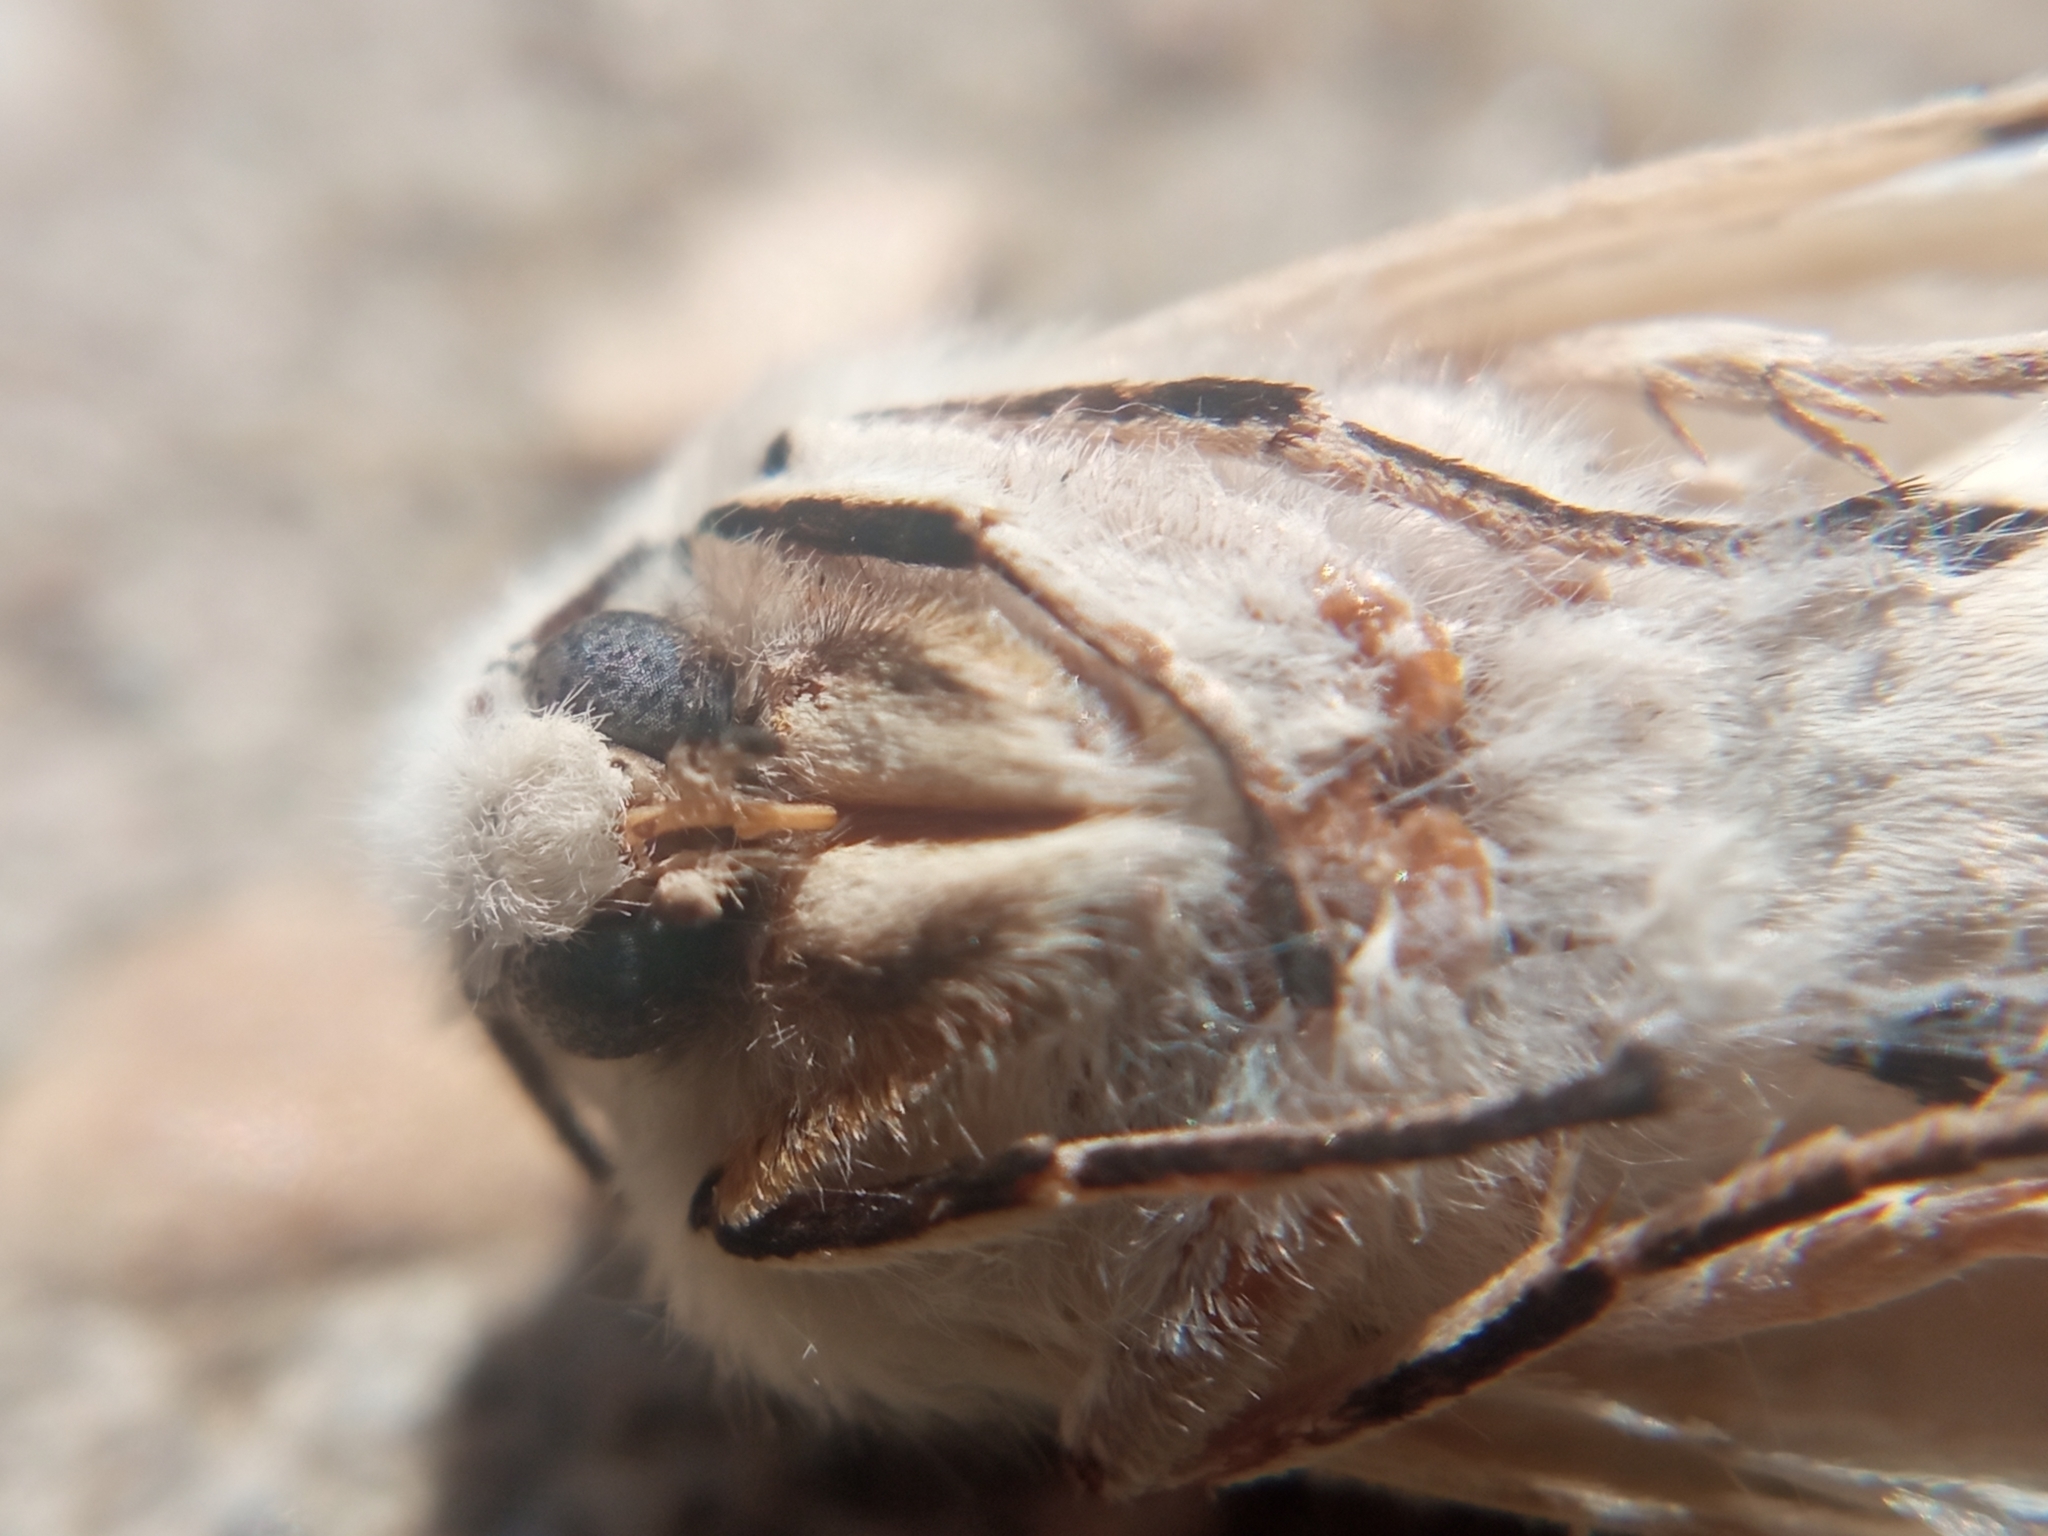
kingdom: Animalia
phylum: Arthropoda
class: Insecta
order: Lepidoptera
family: Erebidae
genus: Spilosoma
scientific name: Spilosoma lubricipeda
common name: White ermine
